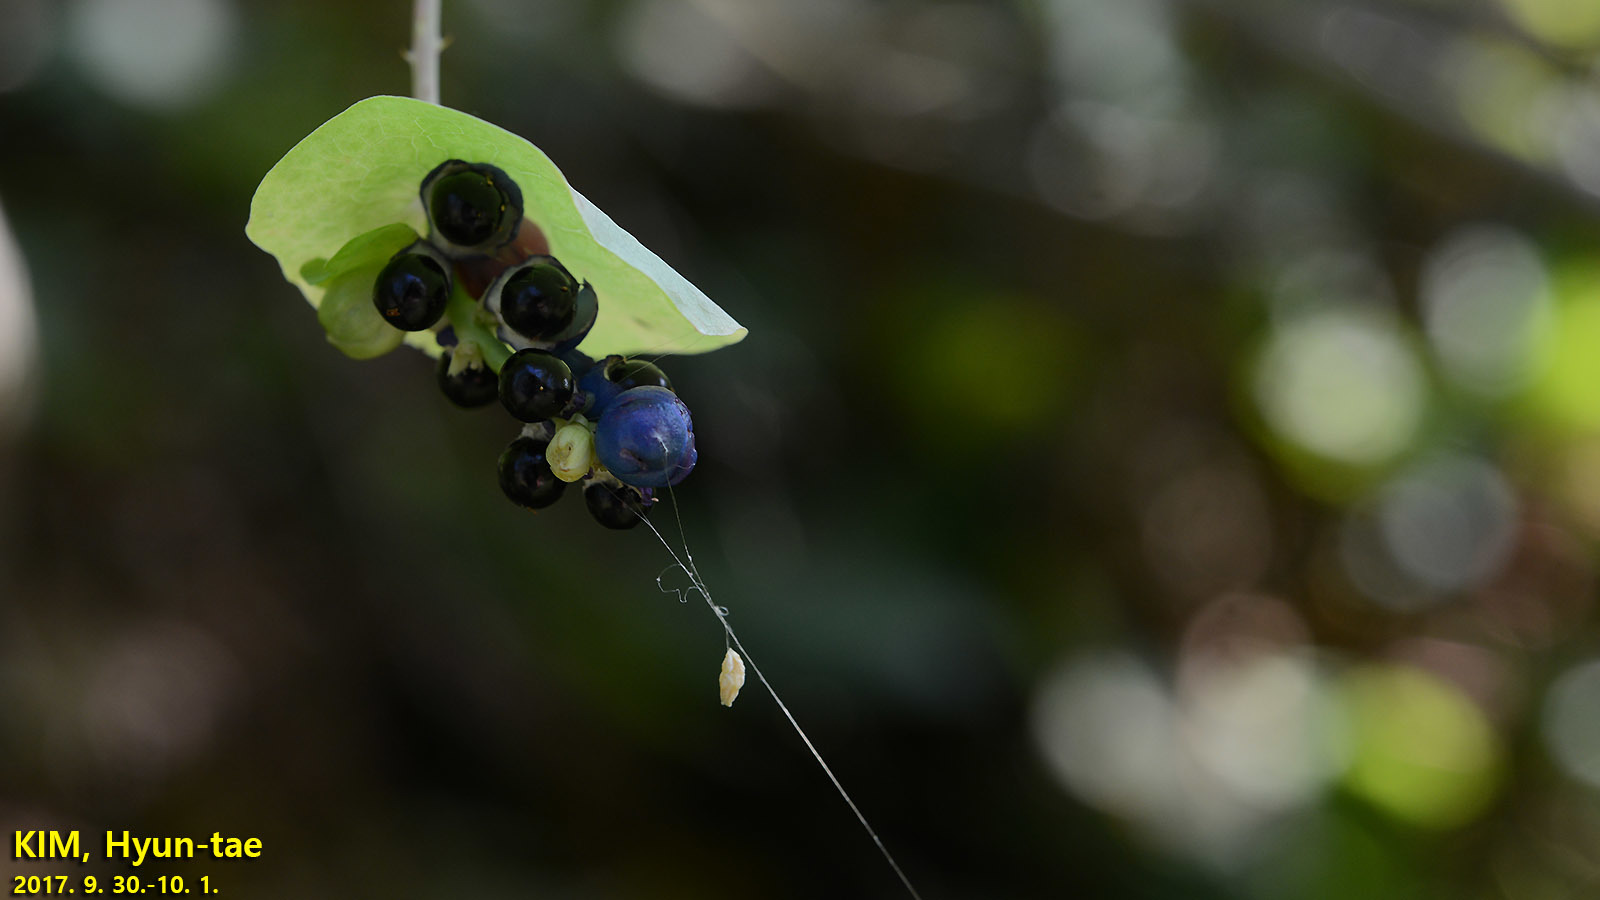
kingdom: Plantae
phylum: Tracheophyta
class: Magnoliopsida
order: Caryophyllales
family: Polygonaceae
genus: Persicaria
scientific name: Persicaria perfoliata
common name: Asiatic tearthumb
